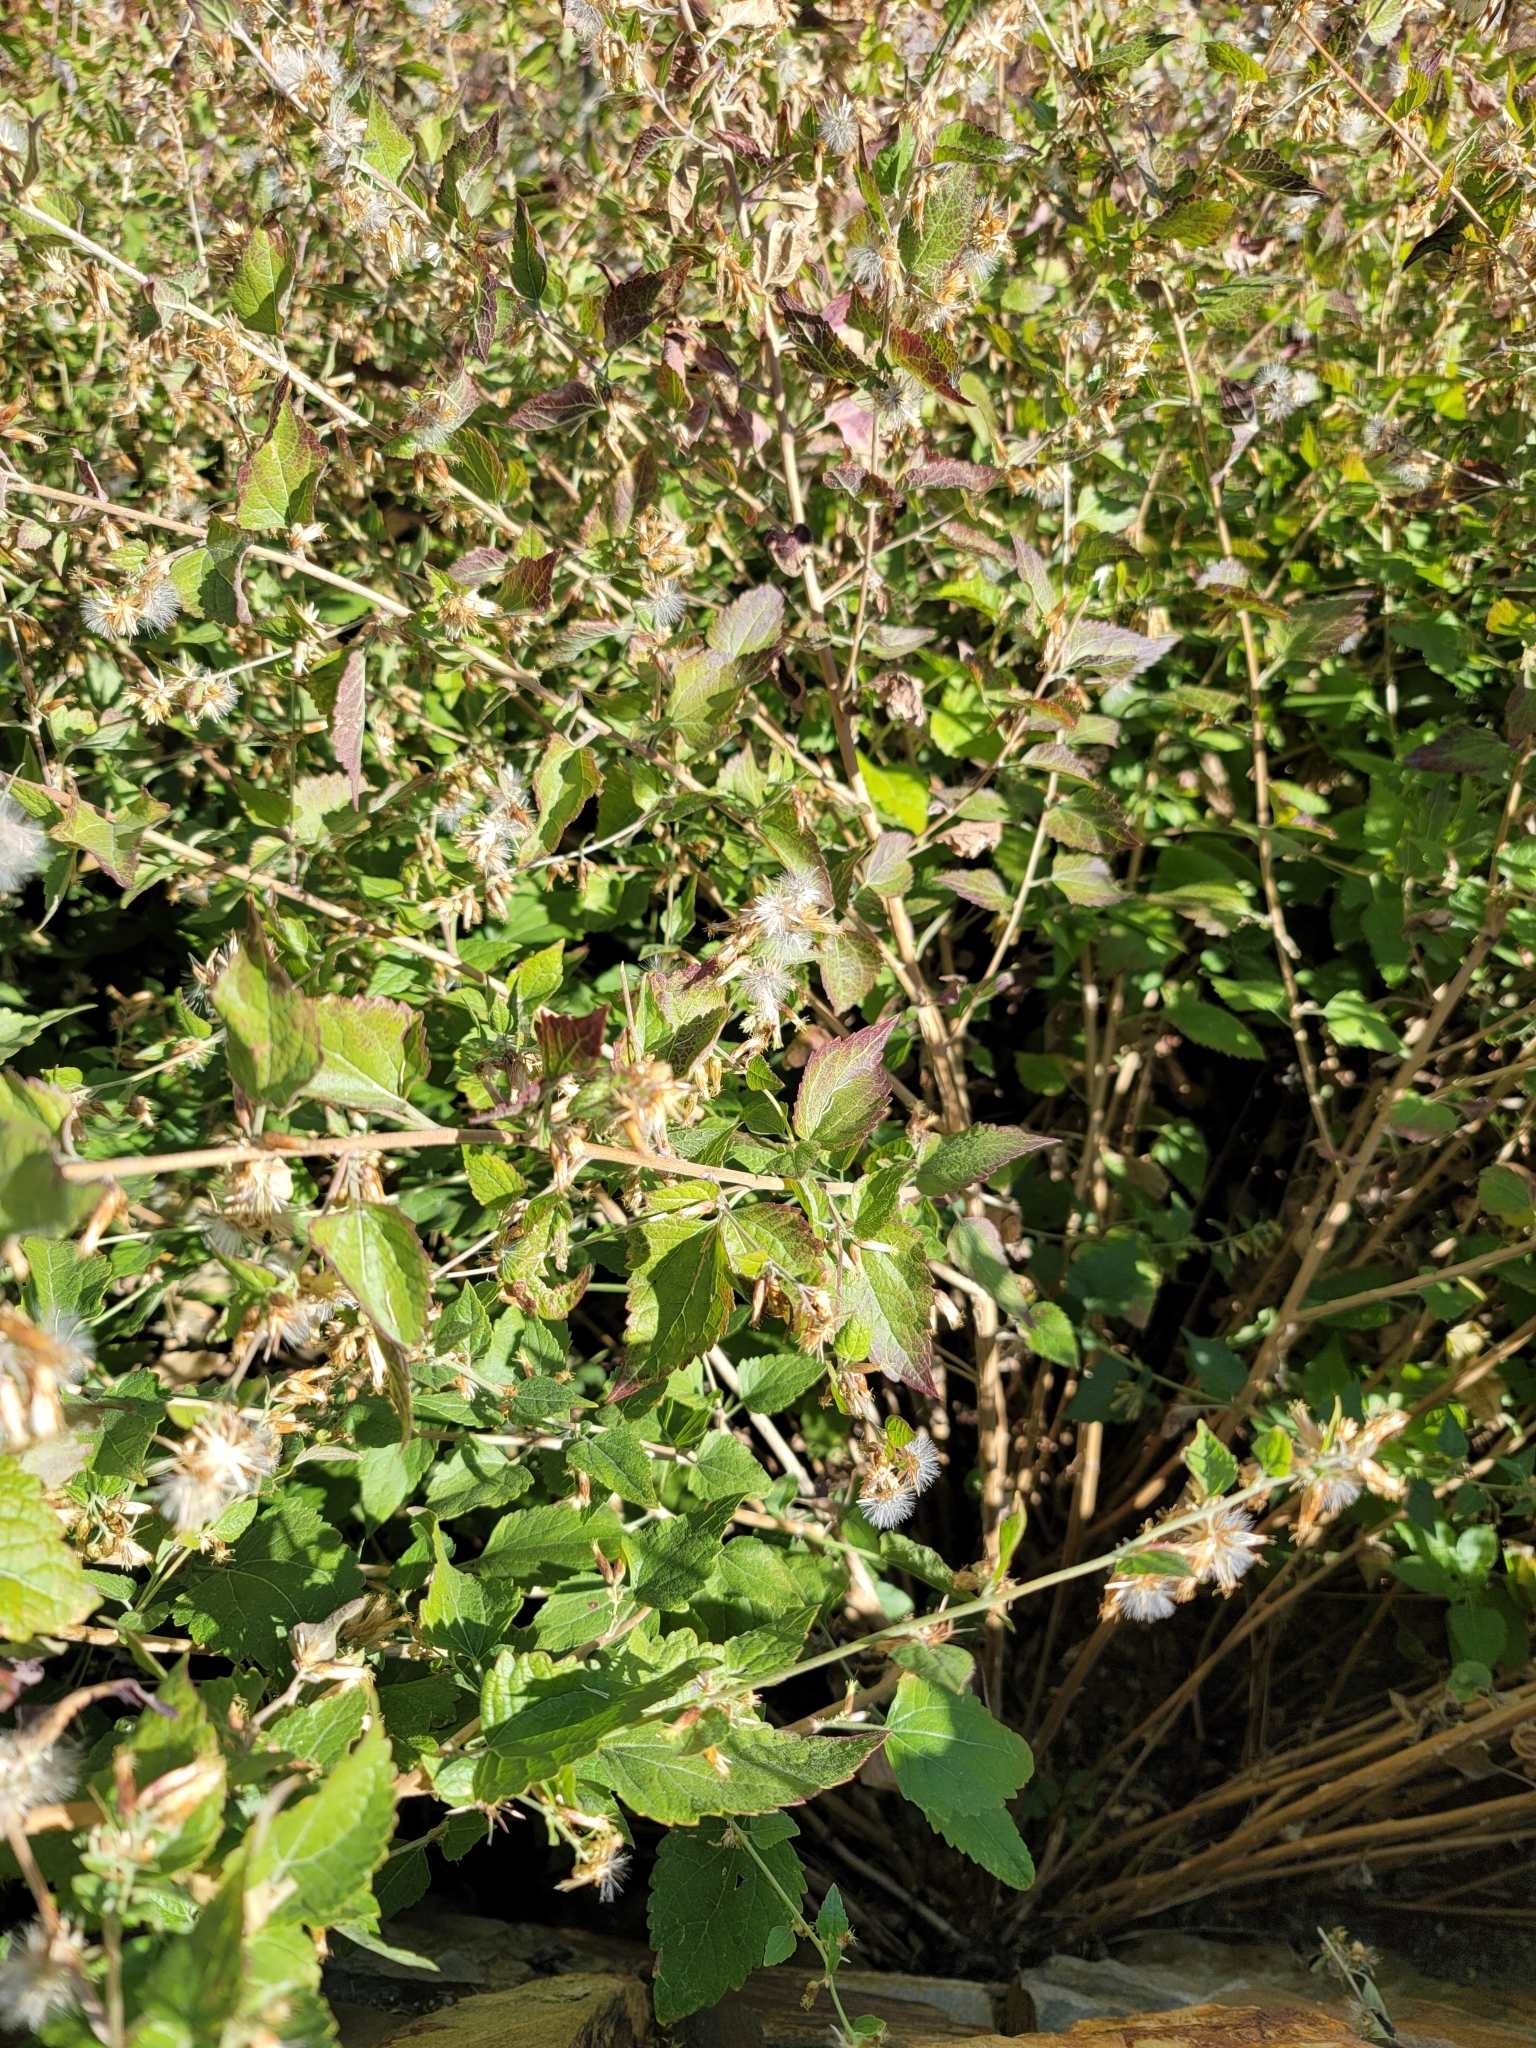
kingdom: Plantae
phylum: Tracheophyta
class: Magnoliopsida
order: Asterales
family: Asteraceae
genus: Brickellia
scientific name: Brickellia californica
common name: California brickellbush
